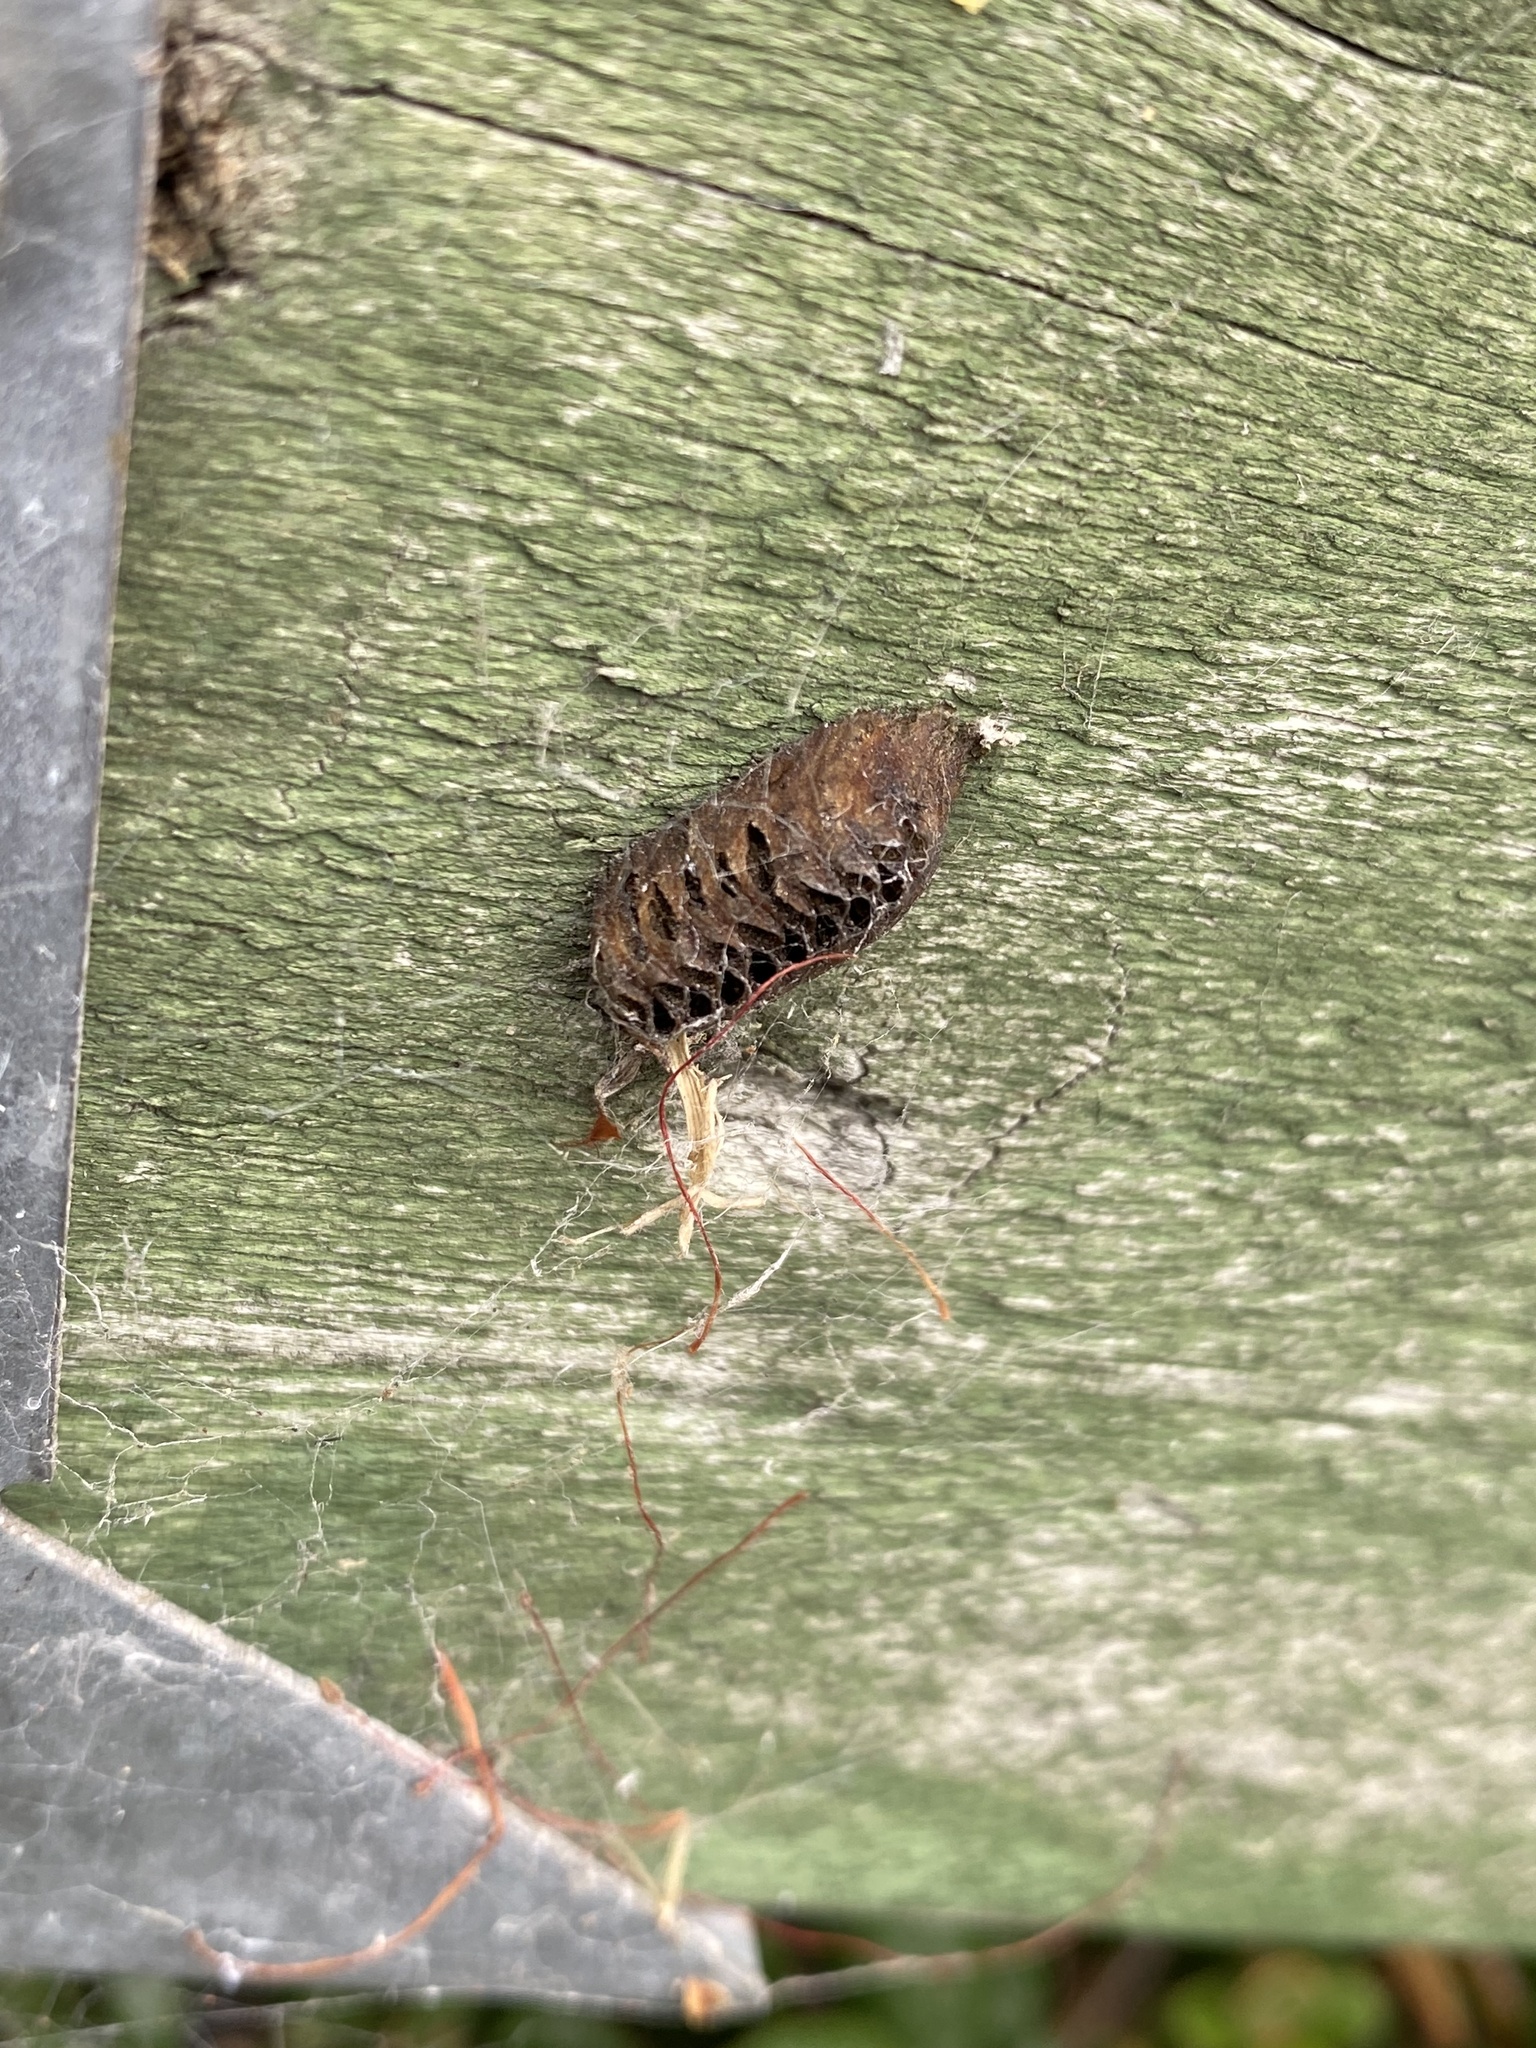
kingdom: Animalia
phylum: Arthropoda
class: Insecta
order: Mantodea
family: Mantidae
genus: Orthodera
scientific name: Orthodera novaezealandiae
